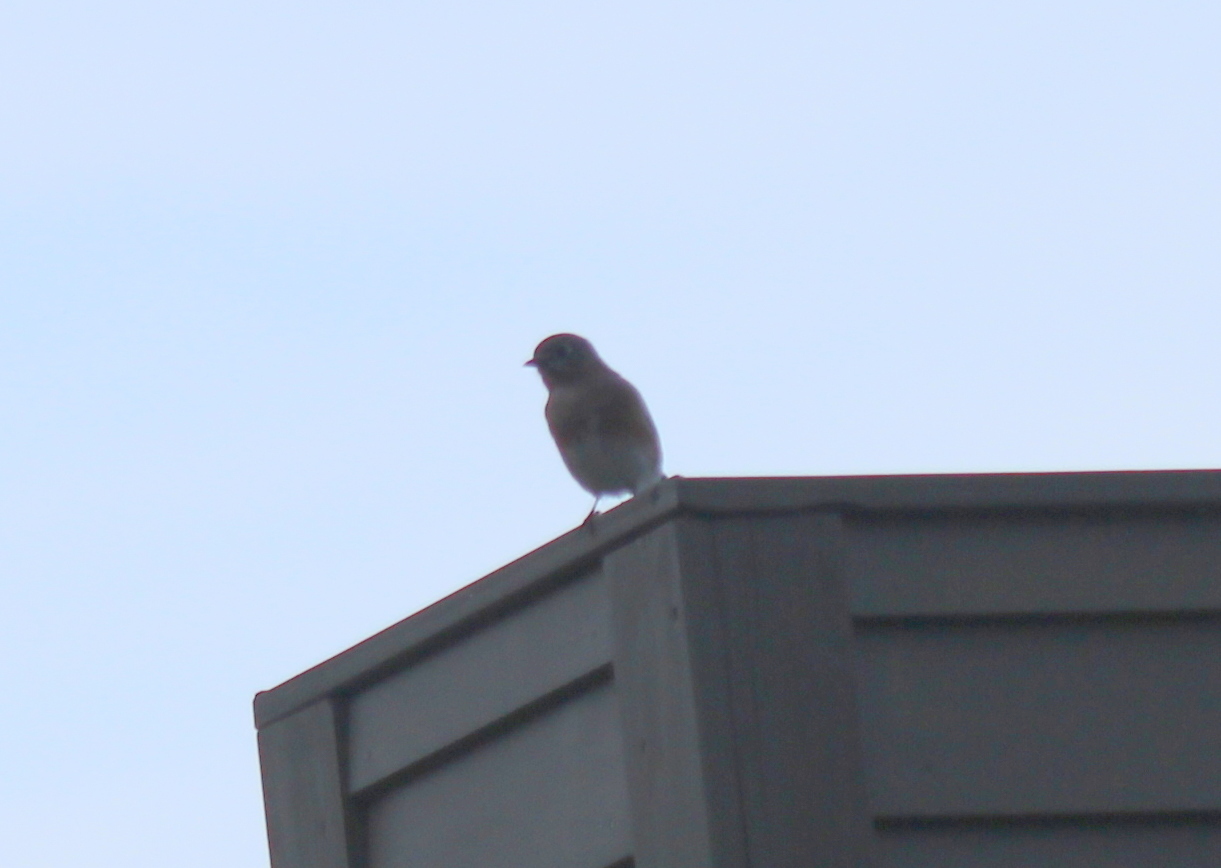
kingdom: Animalia
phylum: Chordata
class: Aves
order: Passeriformes
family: Turdidae
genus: Sialia
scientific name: Sialia sialis
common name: Eastern bluebird
